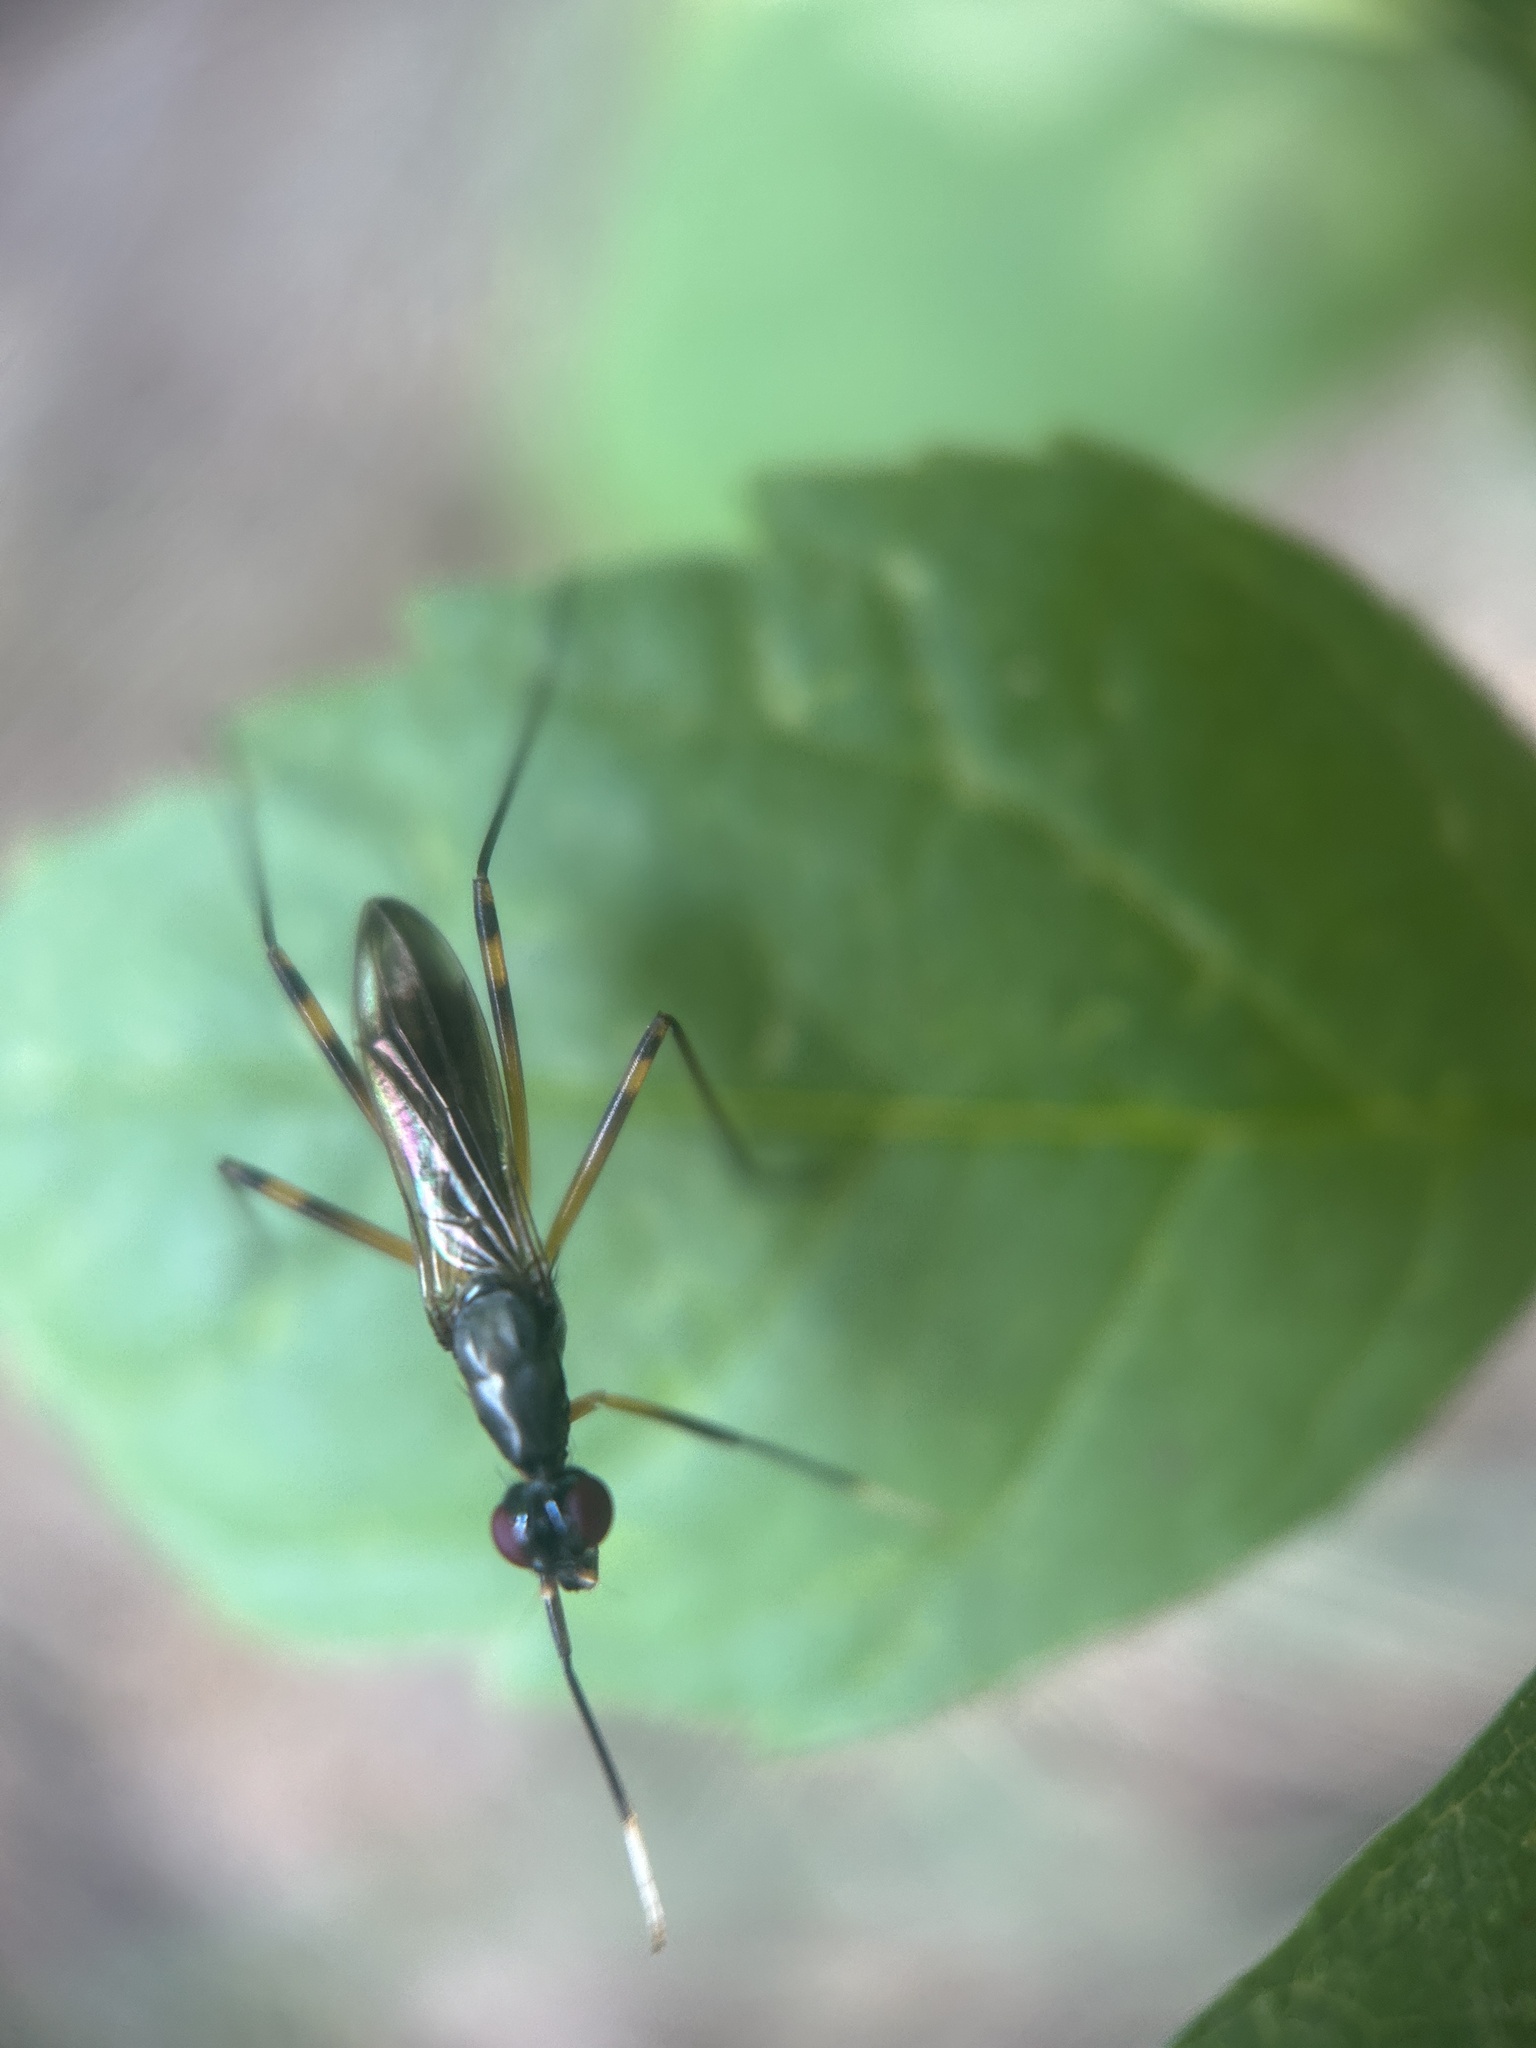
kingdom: Animalia
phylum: Arthropoda
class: Insecta
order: Diptera
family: Micropezidae
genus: Rainieria
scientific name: Rainieria antennaepes
